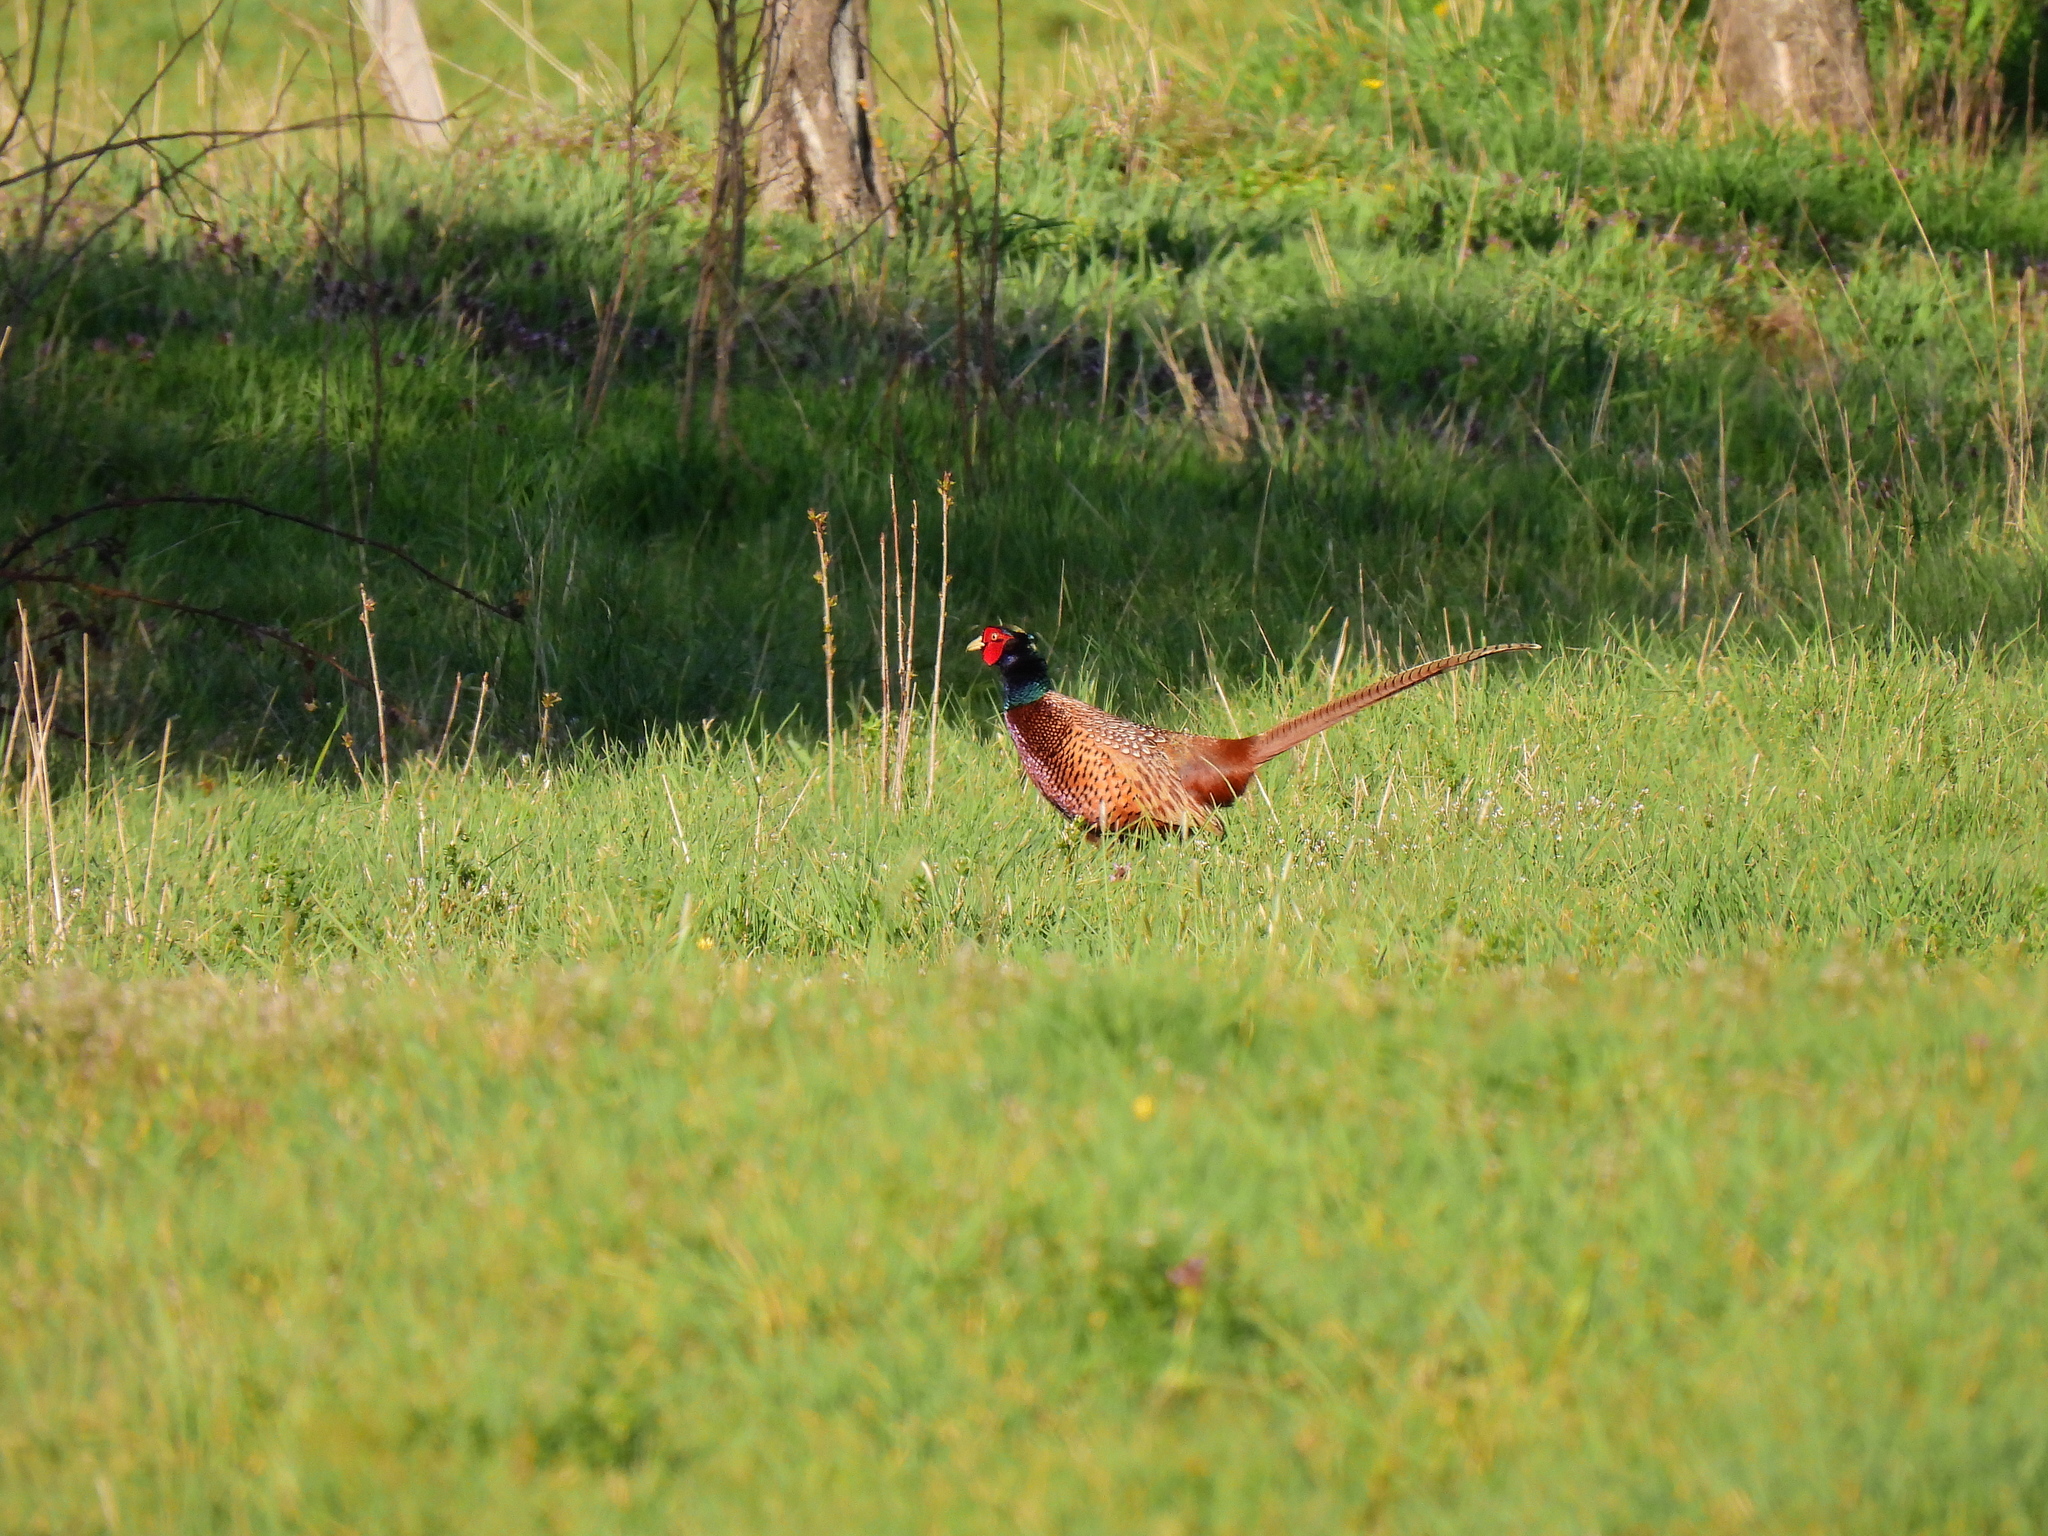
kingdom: Animalia
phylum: Chordata
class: Aves
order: Galliformes
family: Phasianidae
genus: Phasianus
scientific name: Phasianus colchicus
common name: Common pheasant
